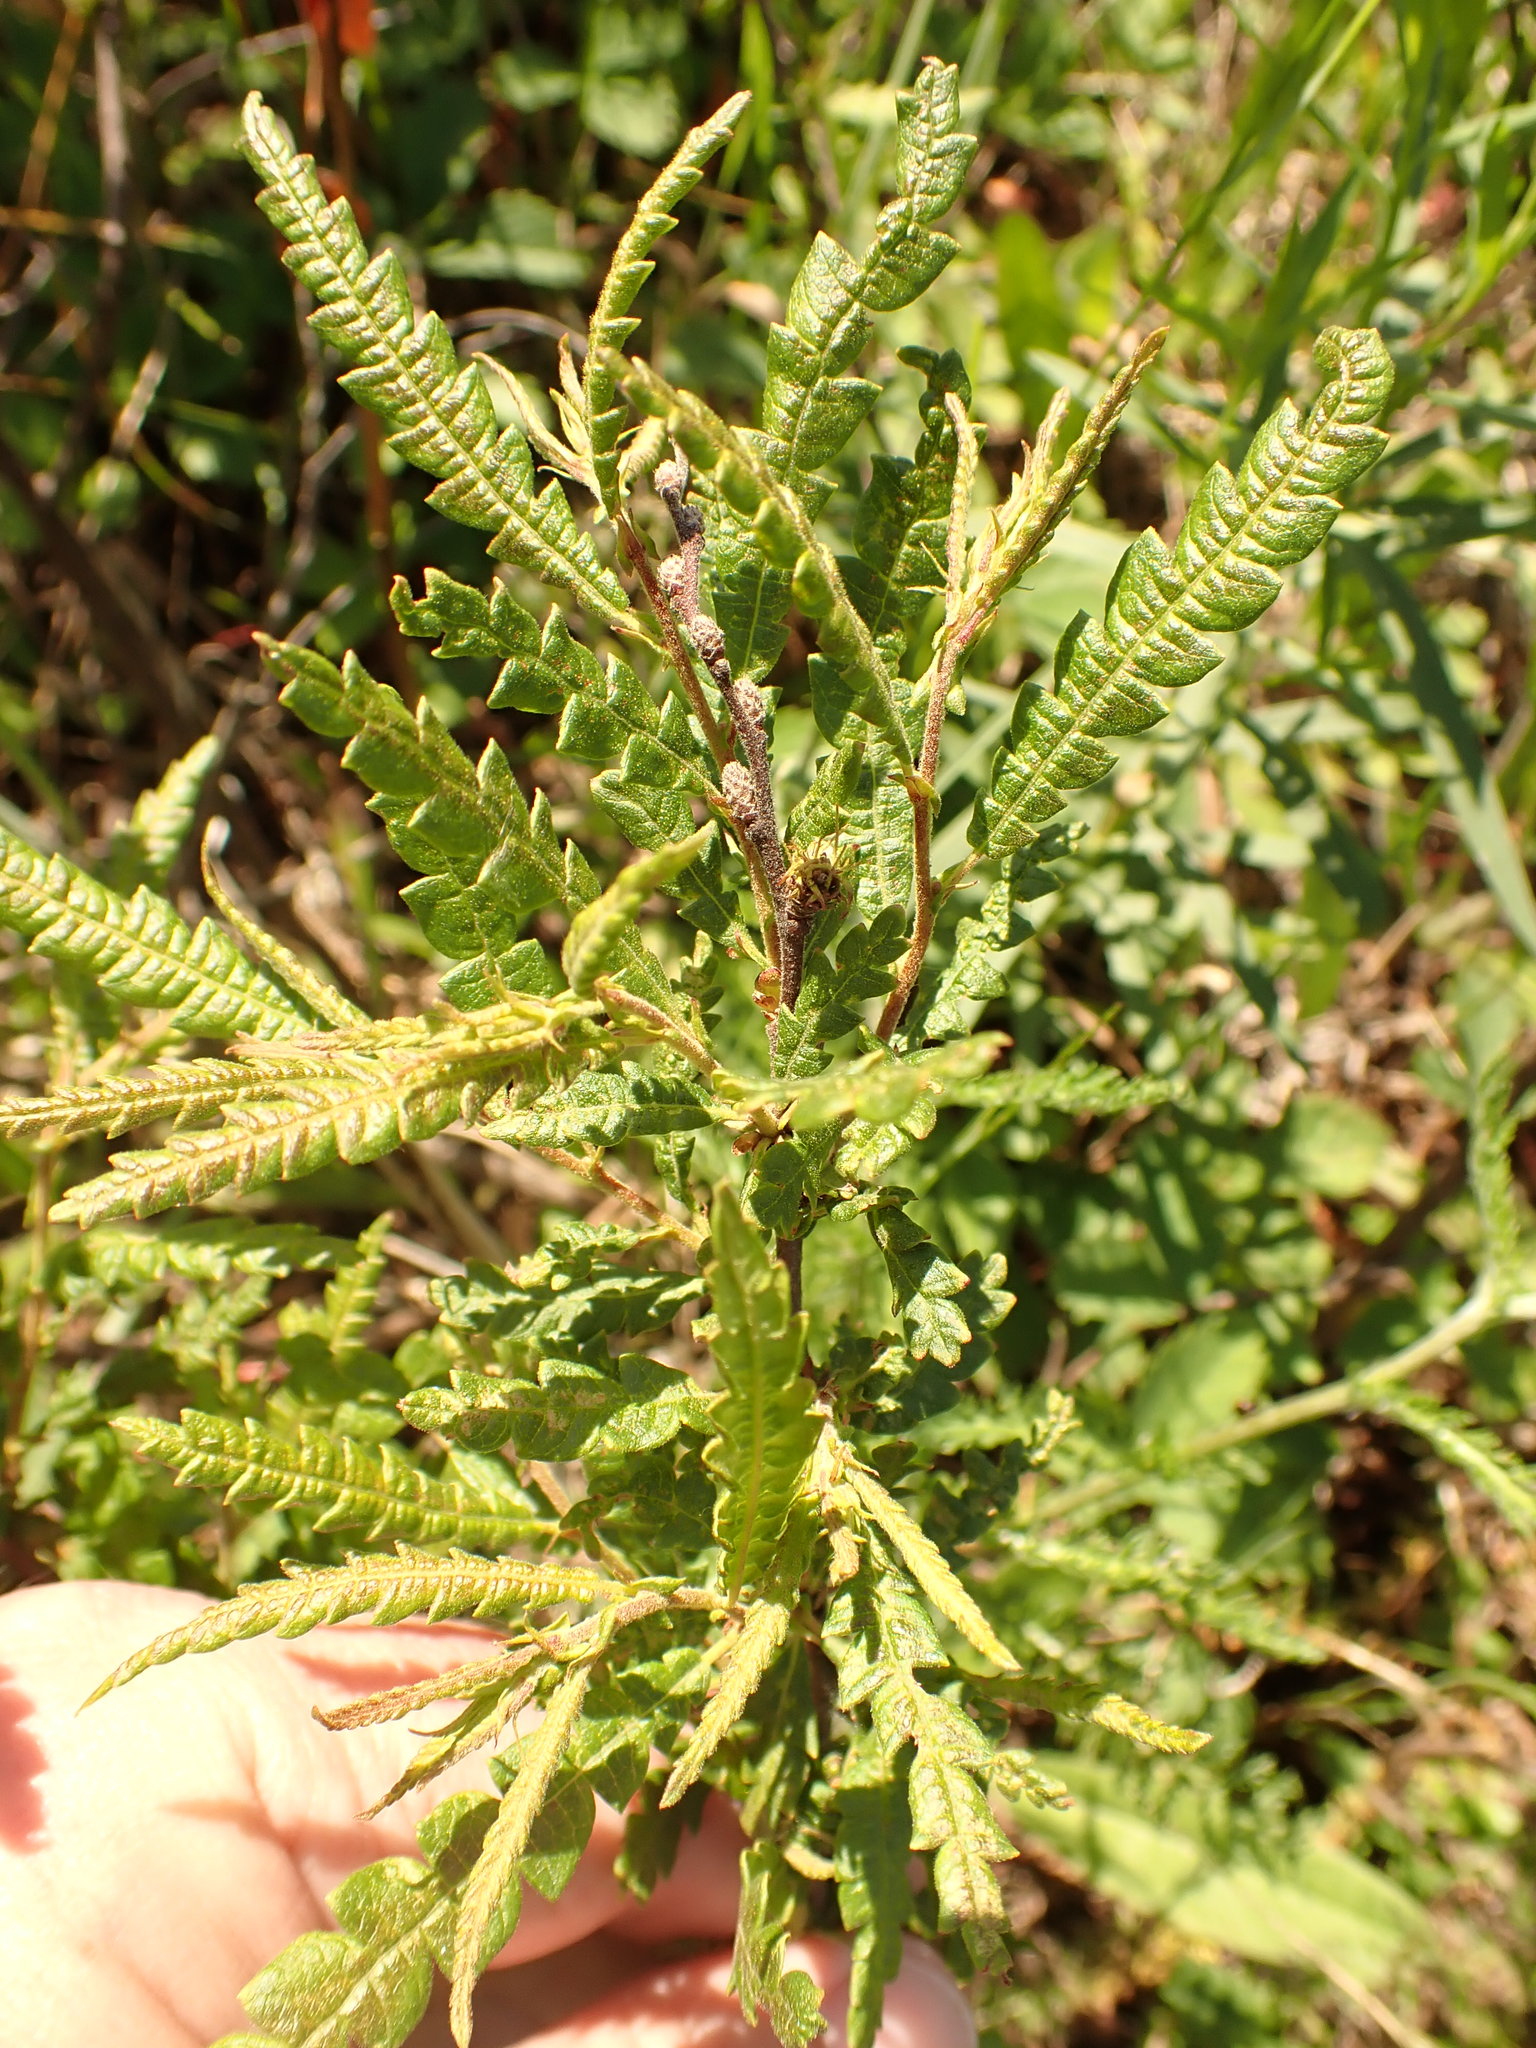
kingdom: Plantae
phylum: Tracheophyta
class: Magnoliopsida
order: Fagales
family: Myricaceae
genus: Comptonia
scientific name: Comptonia peregrina
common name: Sweet-fern
